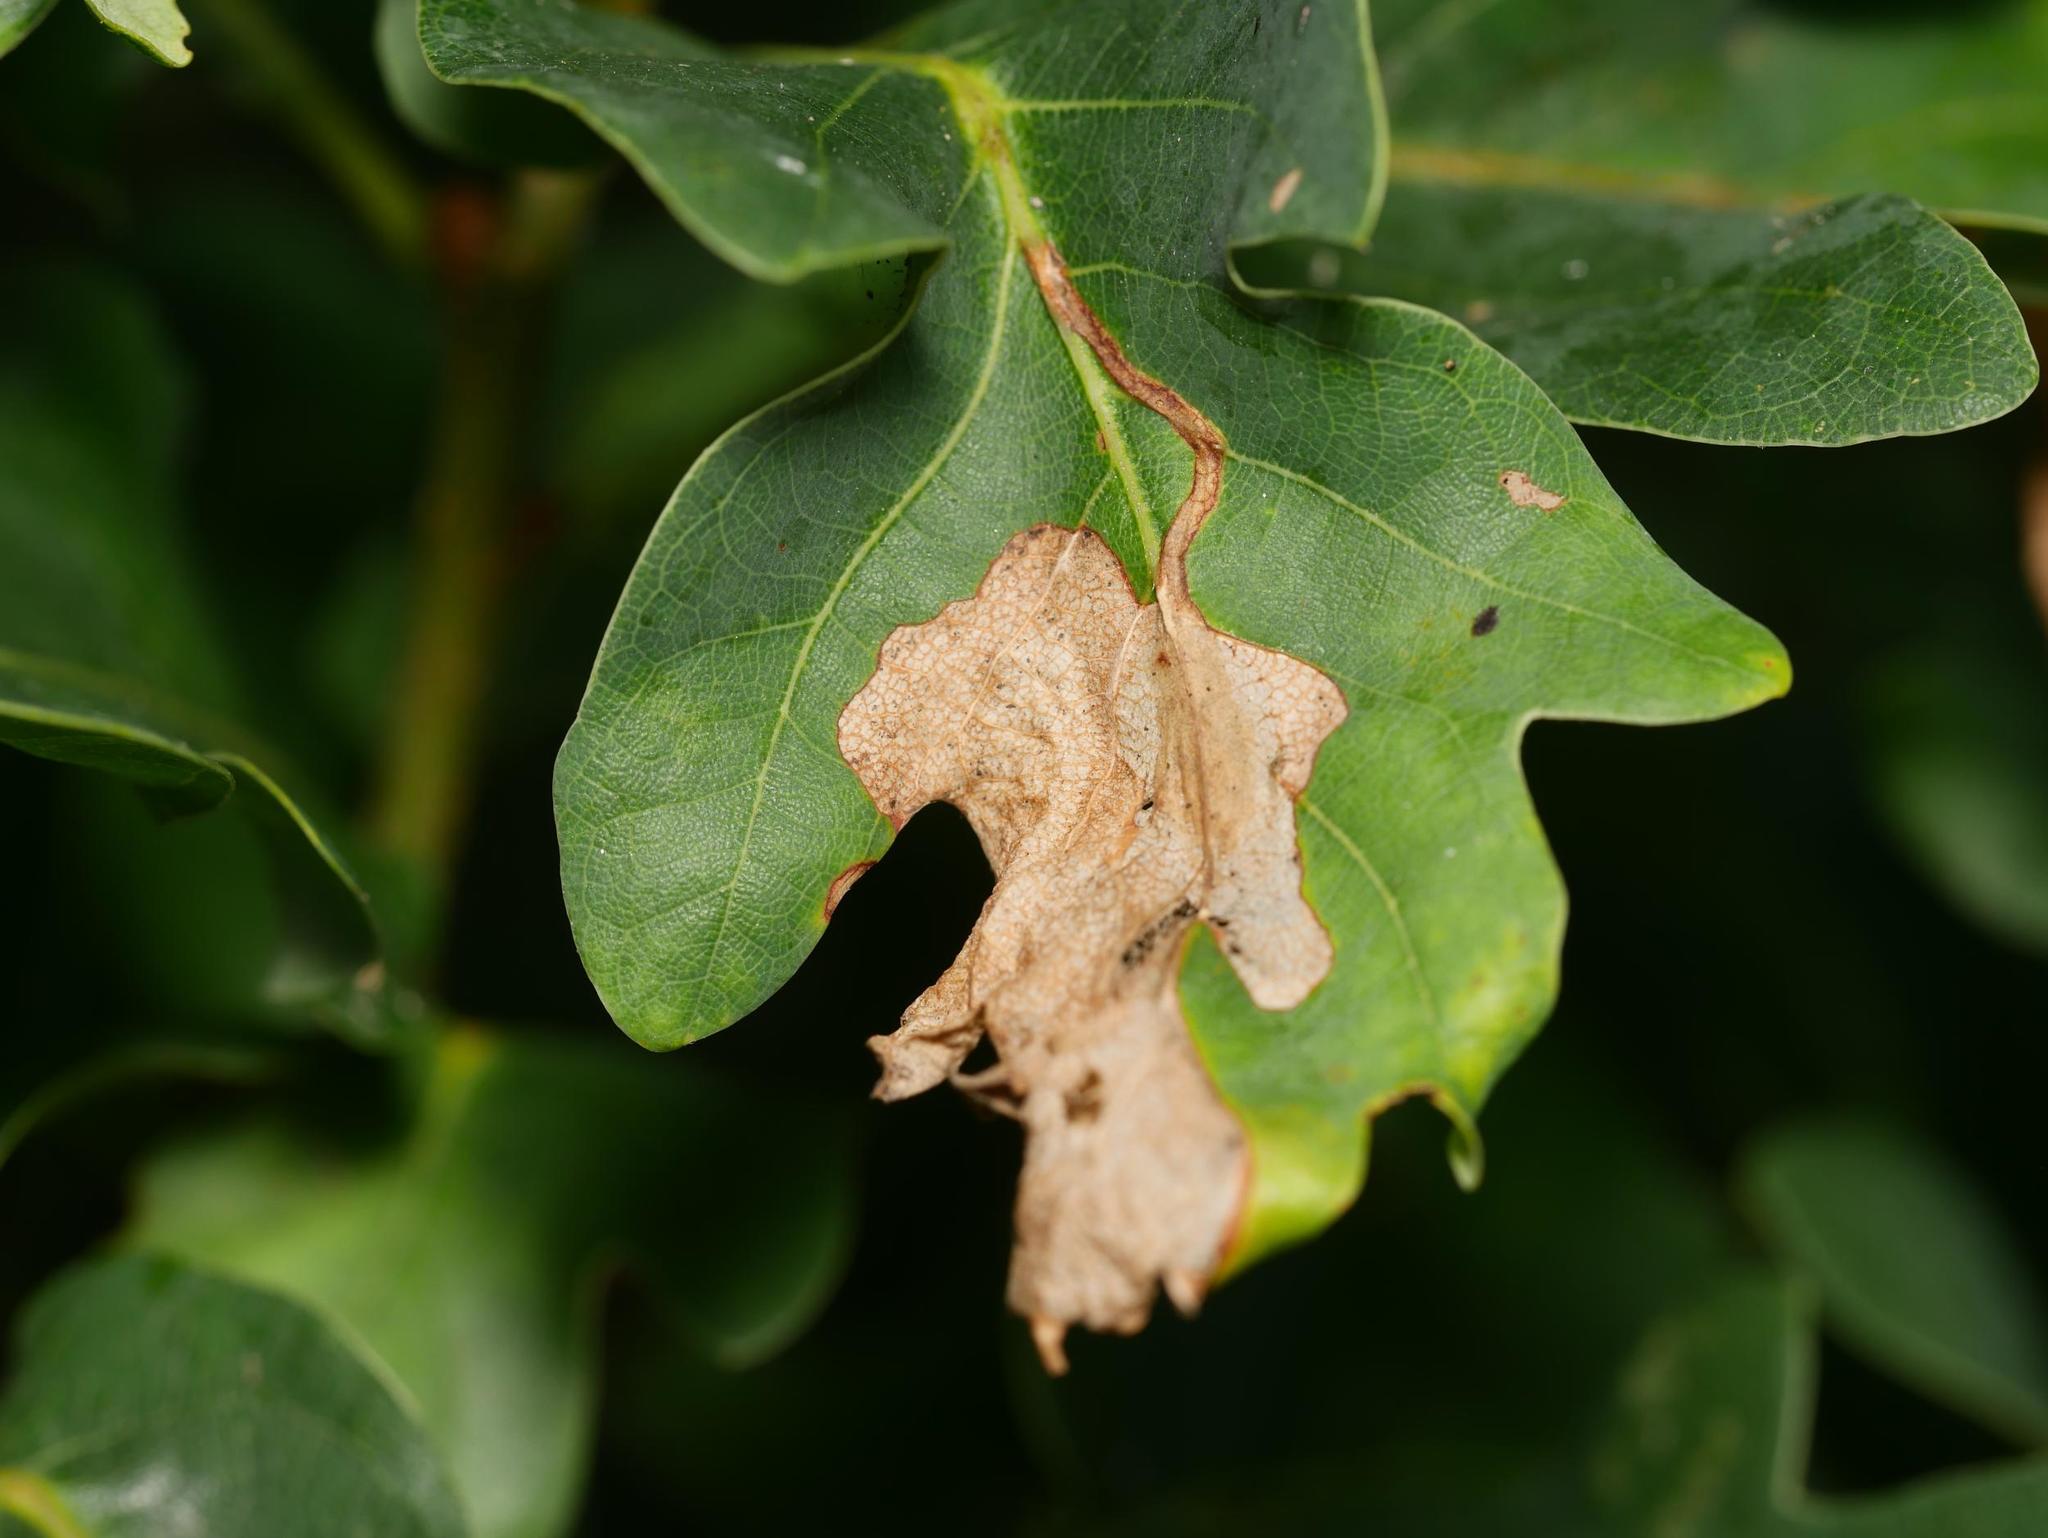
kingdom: Animalia
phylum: Arthropoda
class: Insecta
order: Coleoptera
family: Curculionidae
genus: Orchestes
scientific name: Orchestes quercus
